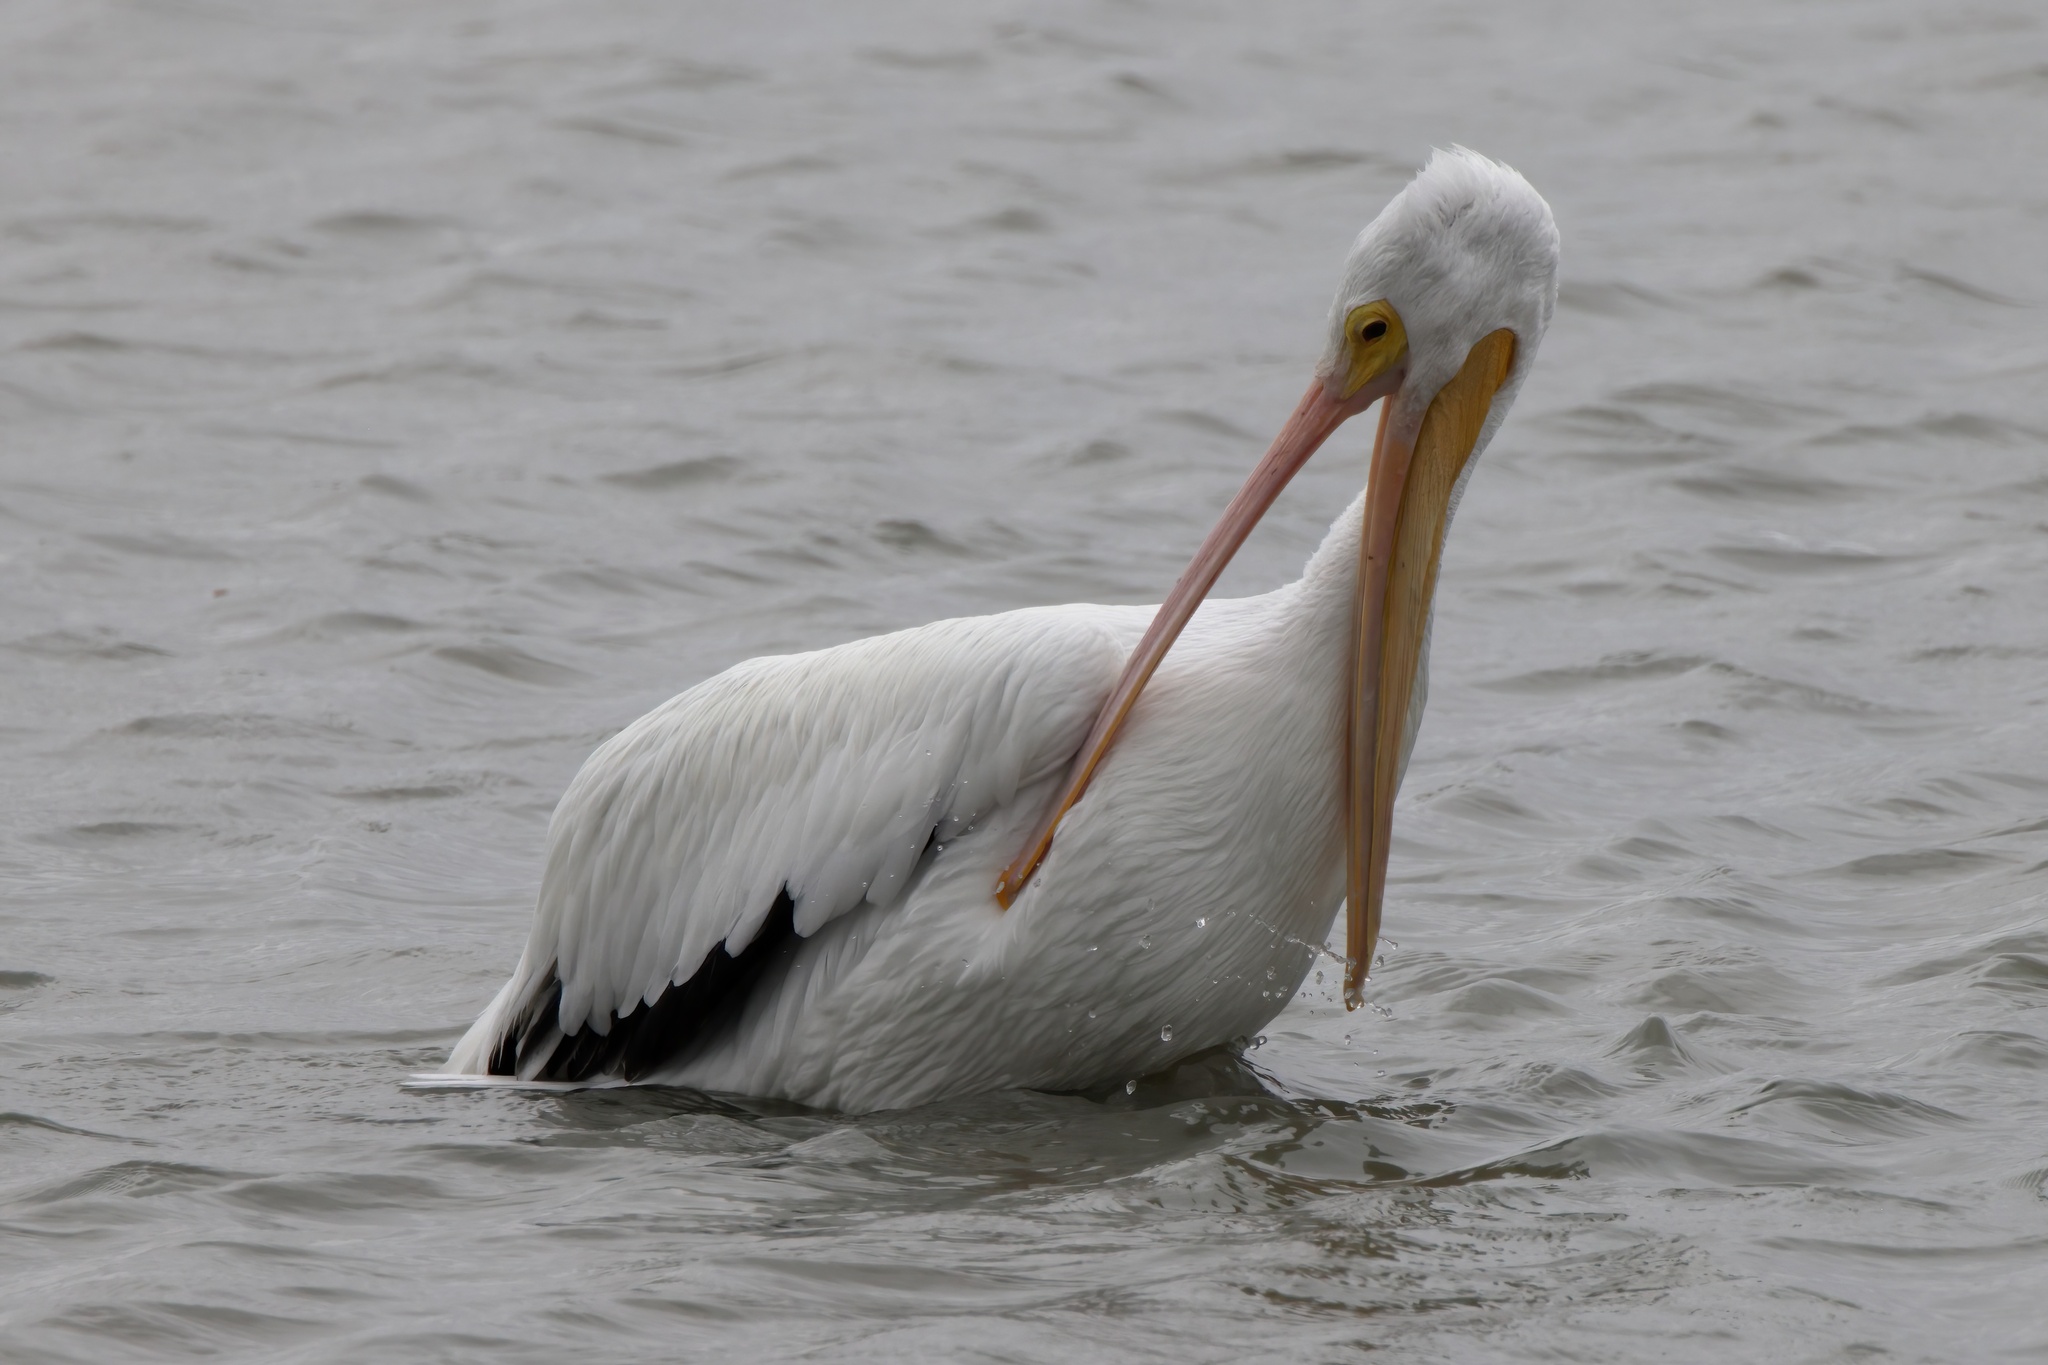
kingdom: Animalia
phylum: Chordata
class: Aves
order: Pelecaniformes
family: Pelecanidae
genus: Pelecanus
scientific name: Pelecanus erythrorhynchos
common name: American white pelican
